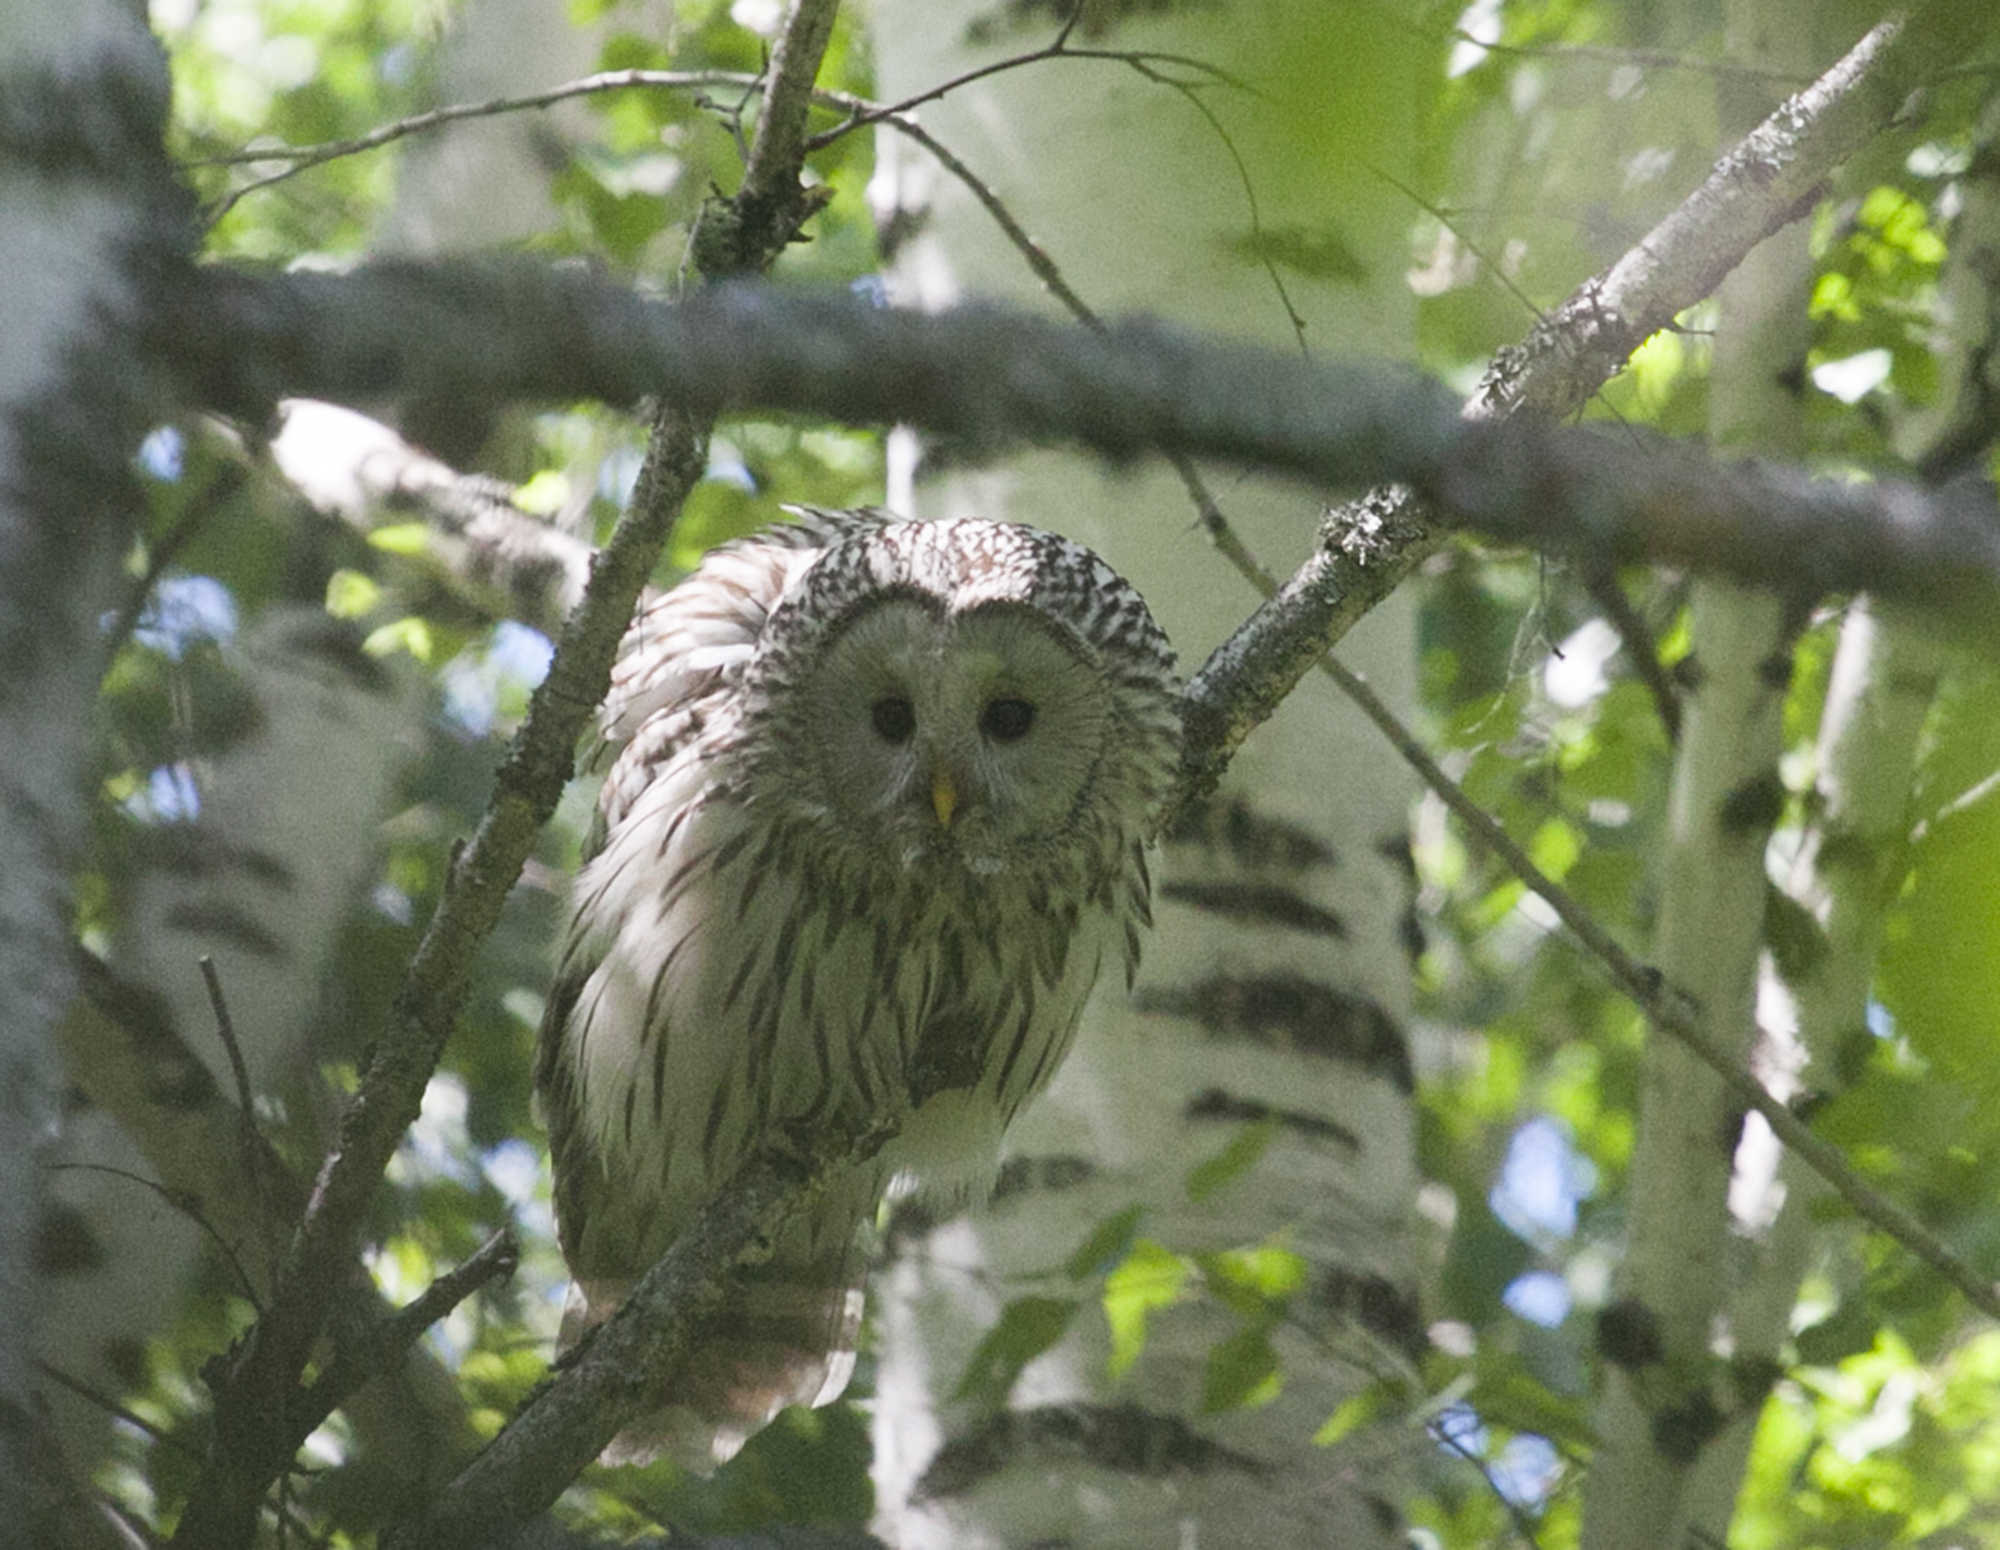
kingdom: Animalia
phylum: Chordata
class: Aves
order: Strigiformes
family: Strigidae
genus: Strix
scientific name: Strix uralensis
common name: Ural owl
